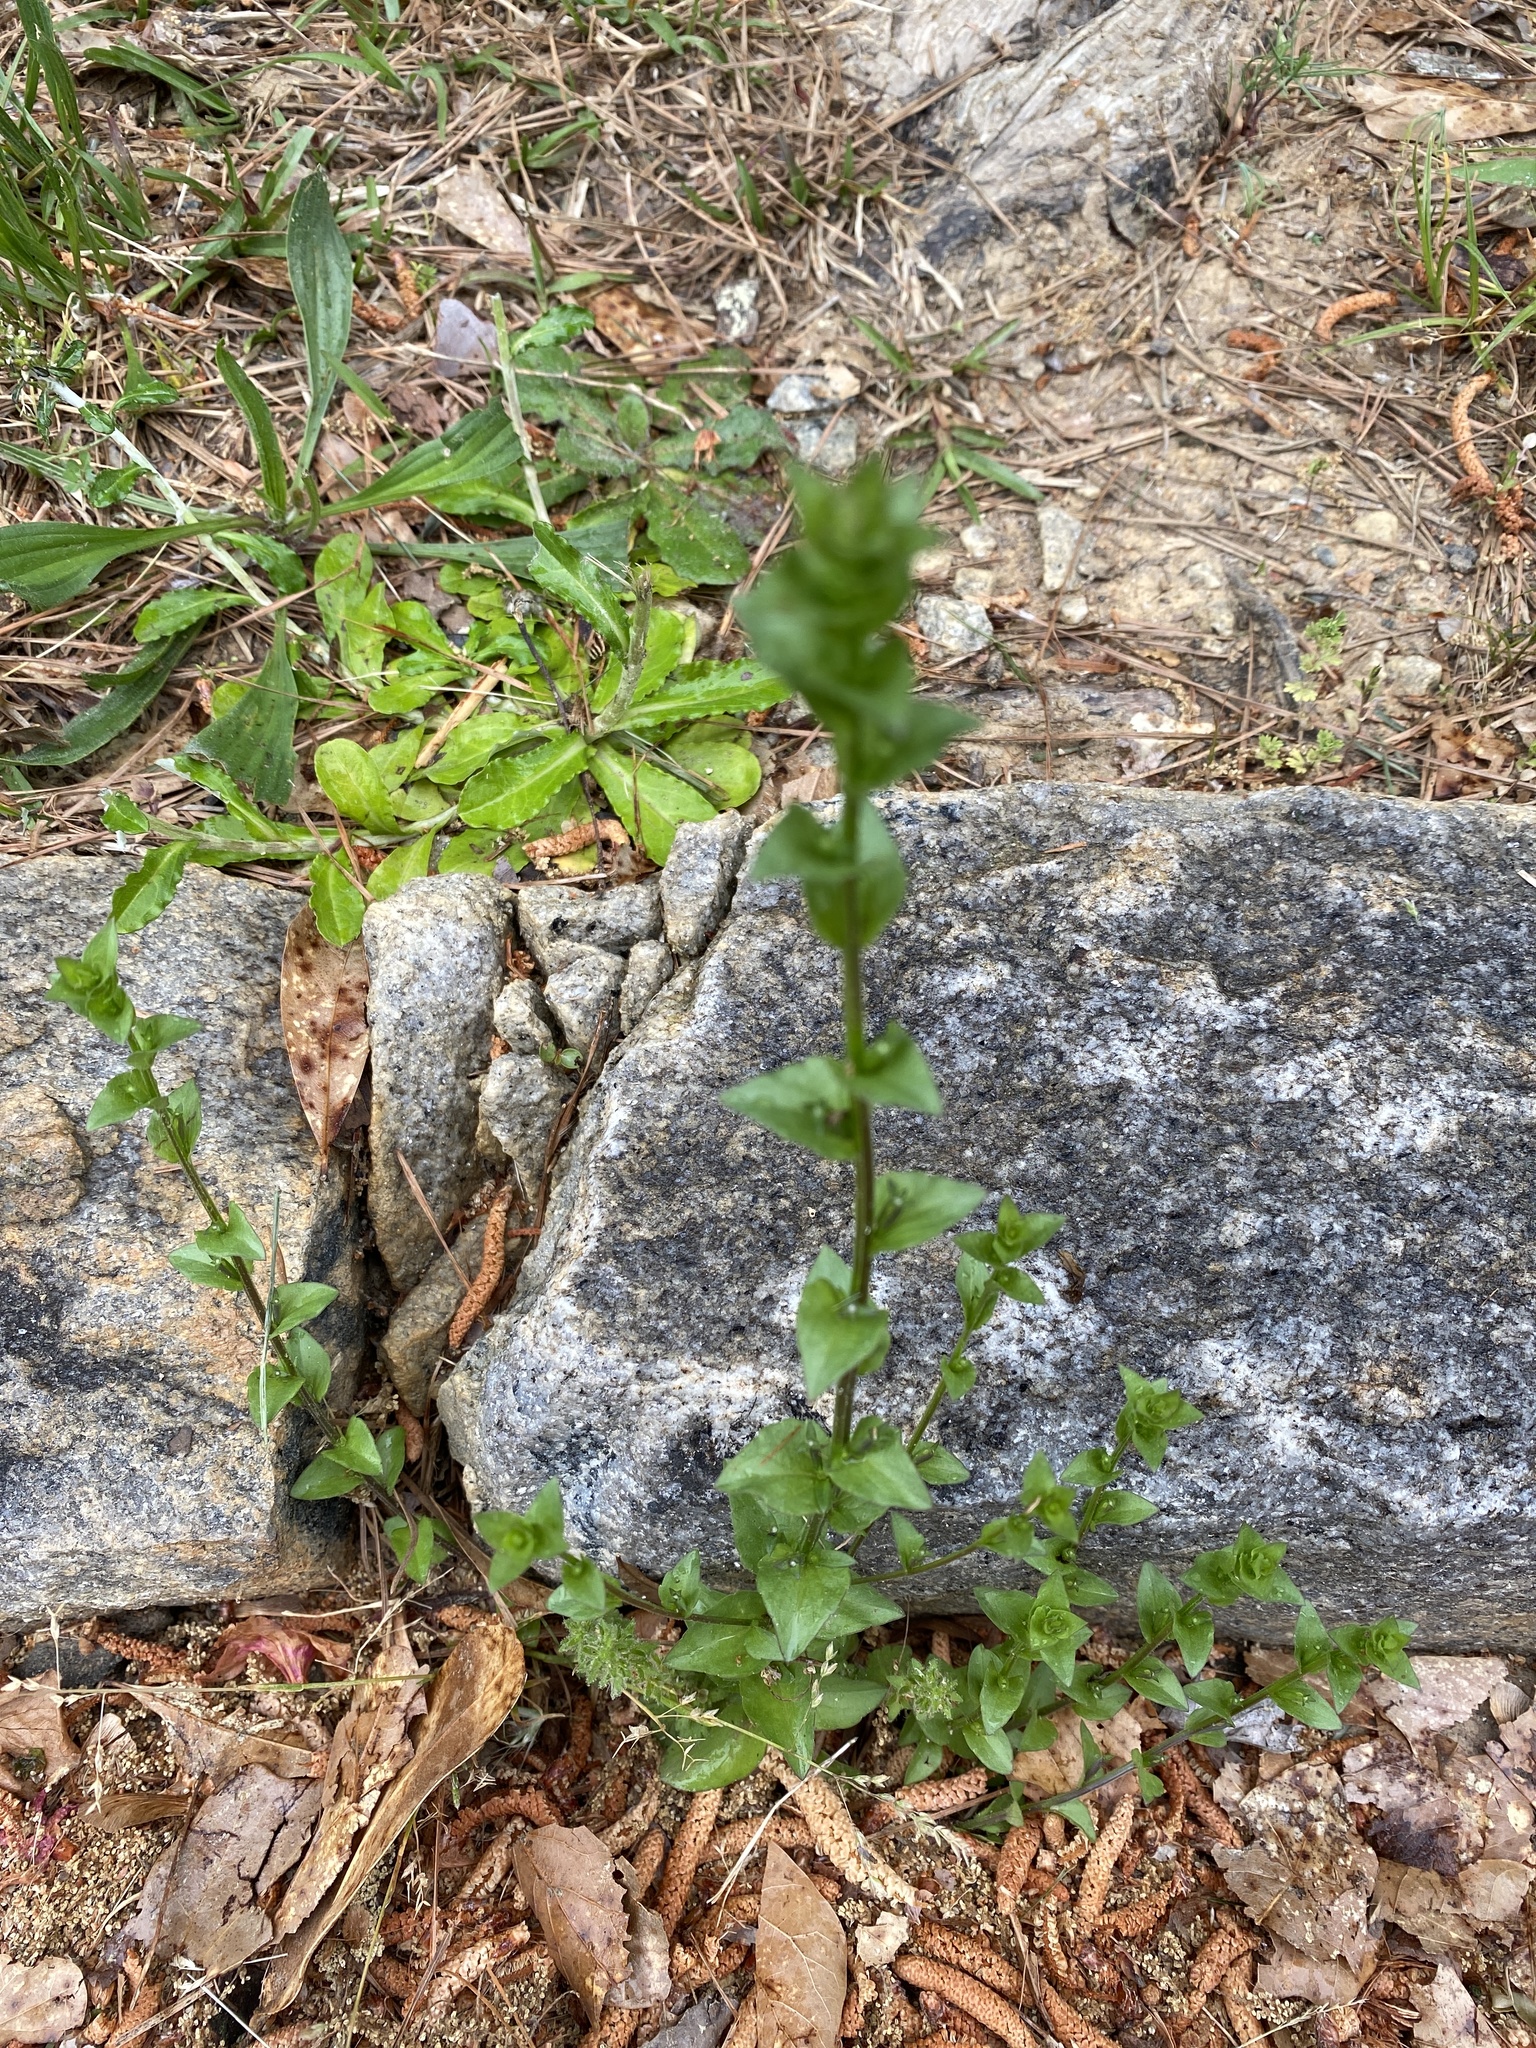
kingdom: Plantae
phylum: Tracheophyta
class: Magnoliopsida
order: Asterales
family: Campanulaceae
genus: Triodanis
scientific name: Triodanis biflora
